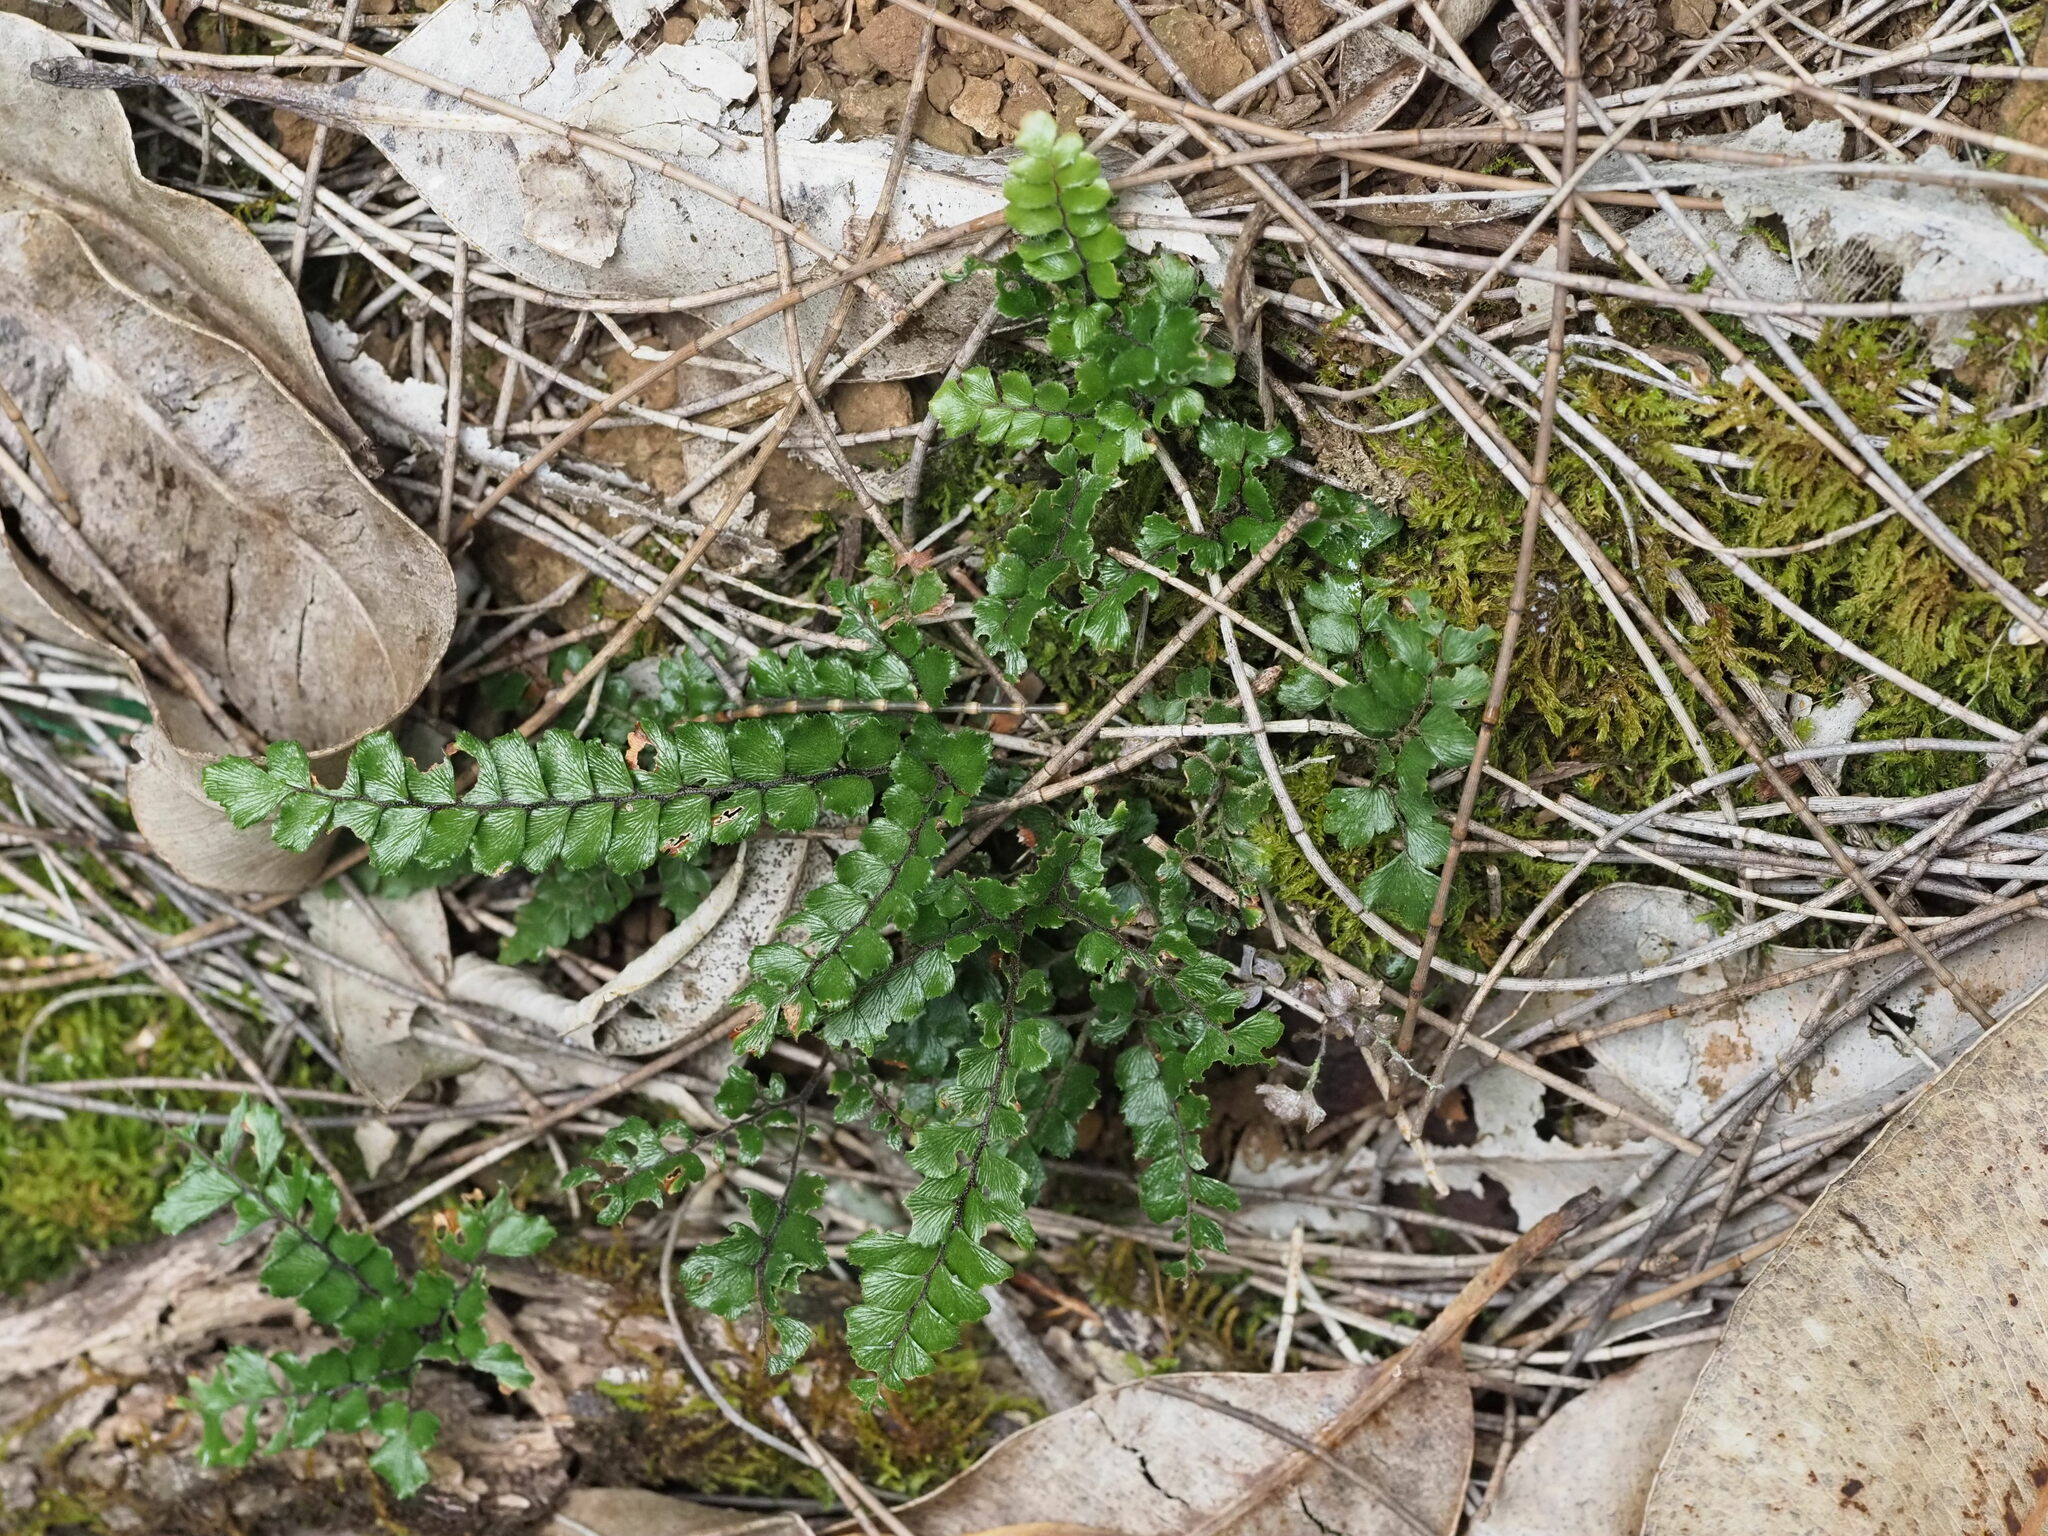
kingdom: Plantae
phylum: Tracheophyta
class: Polypodiopsida
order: Polypodiales
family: Pteridaceae
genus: Adiantum
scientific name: Adiantum hispidulum
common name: Rough maidenhair
